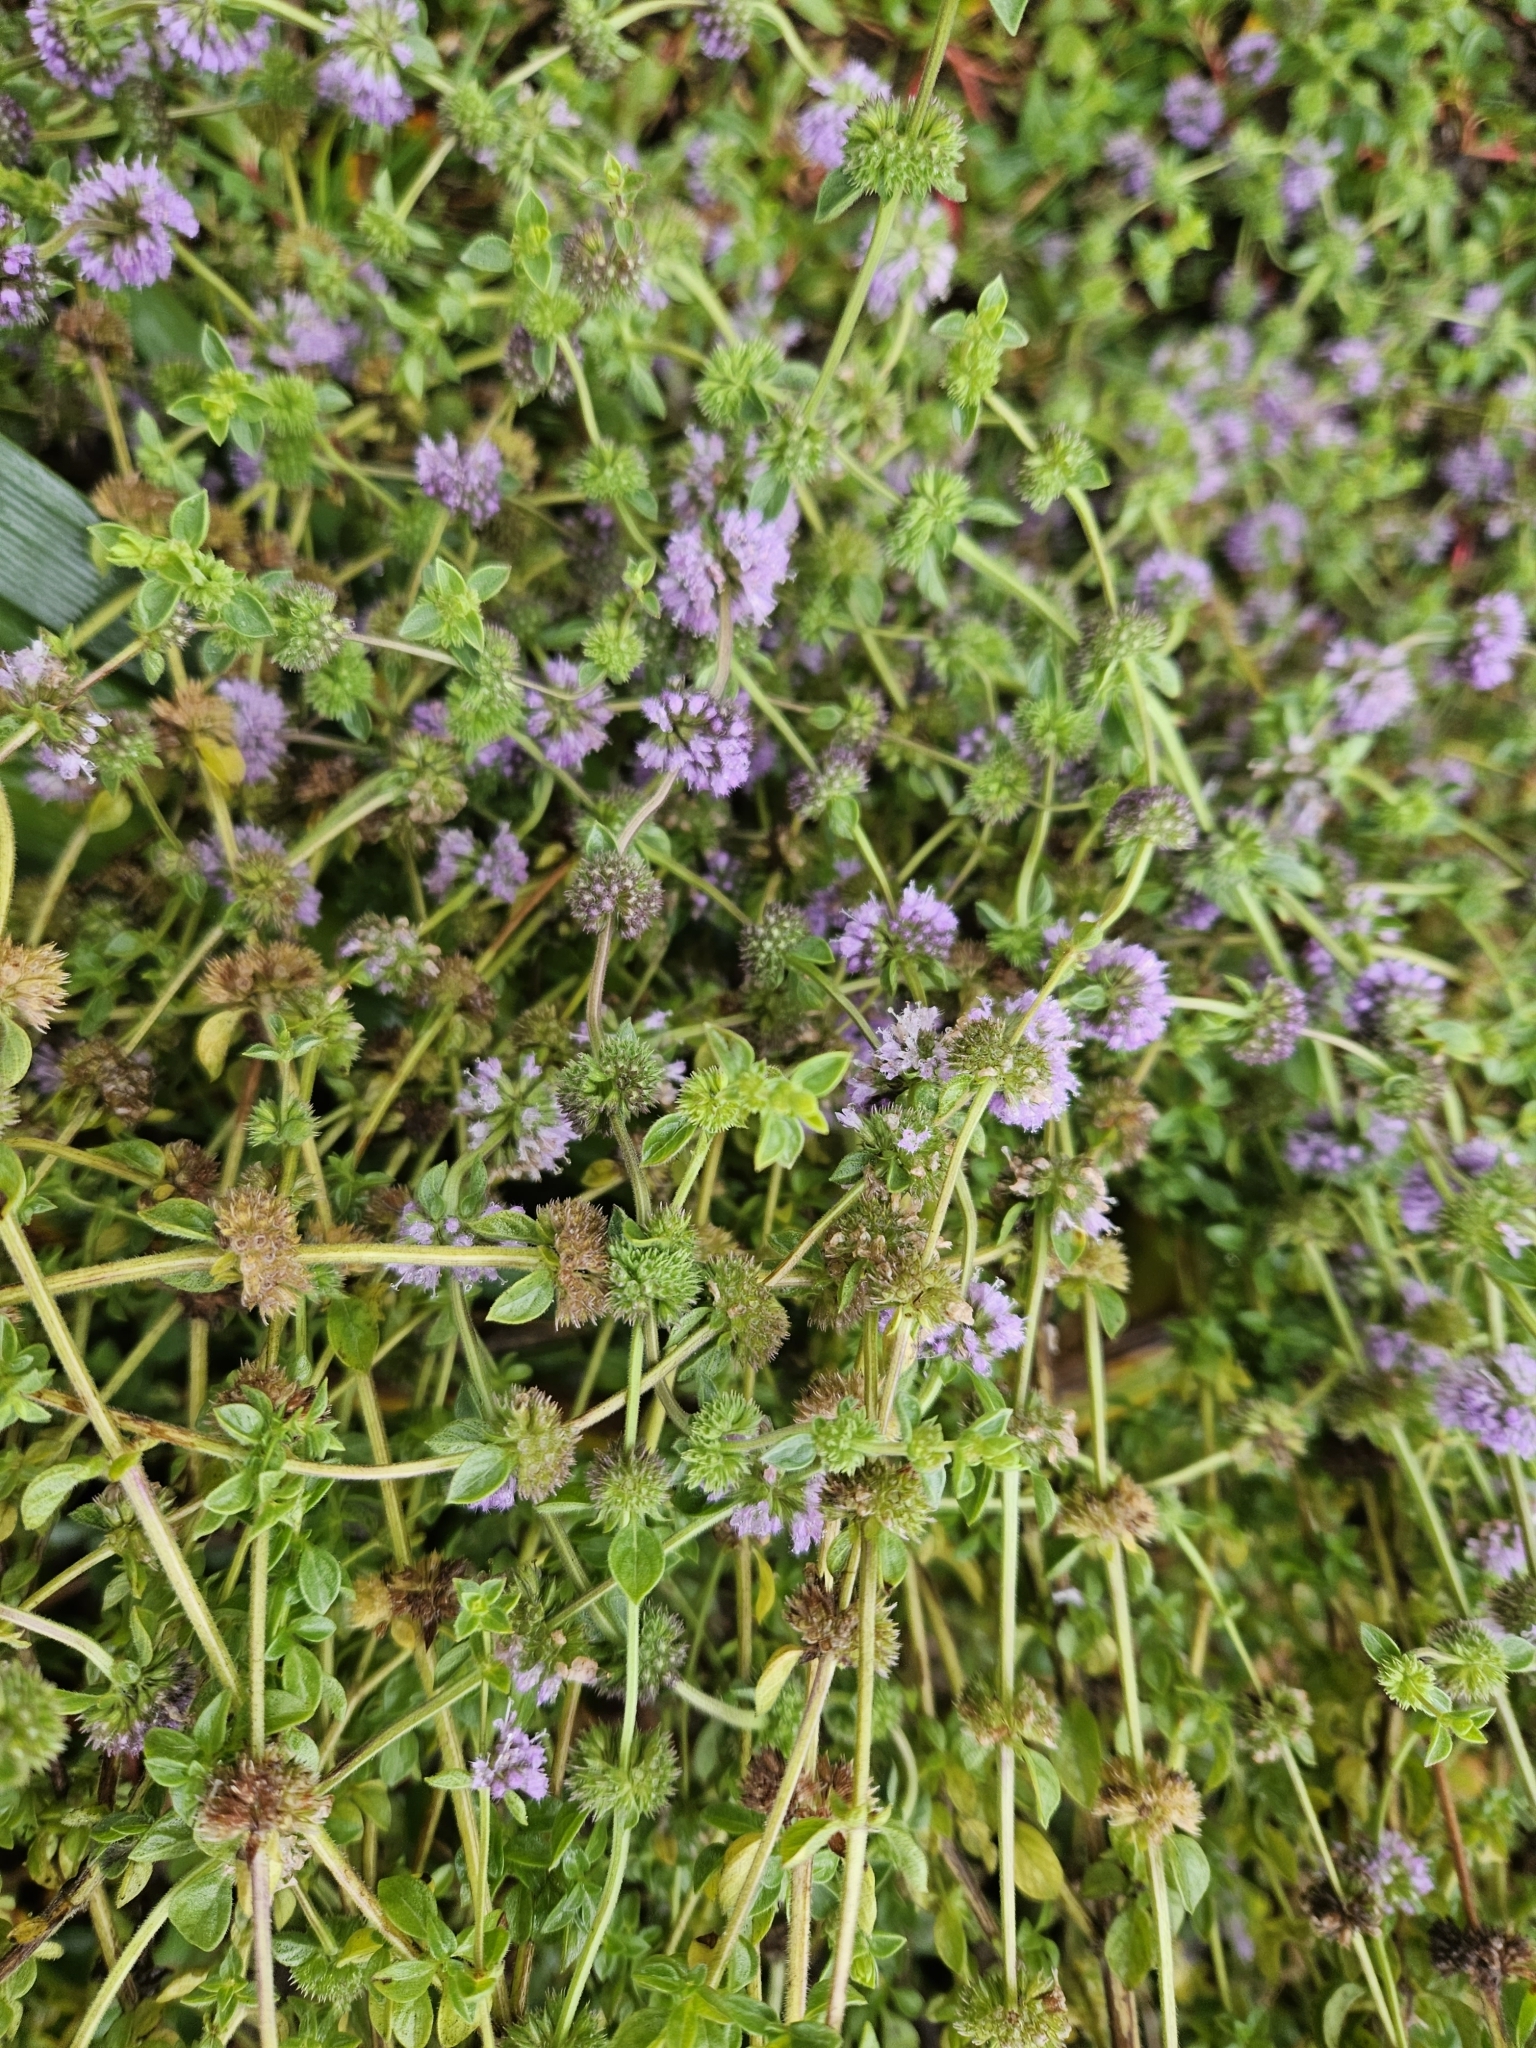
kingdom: Plantae
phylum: Tracheophyta
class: Magnoliopsida
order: Lamiales
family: Lamiaceae
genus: Mentha
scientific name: Mentha pulegium
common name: Pennyroyal
